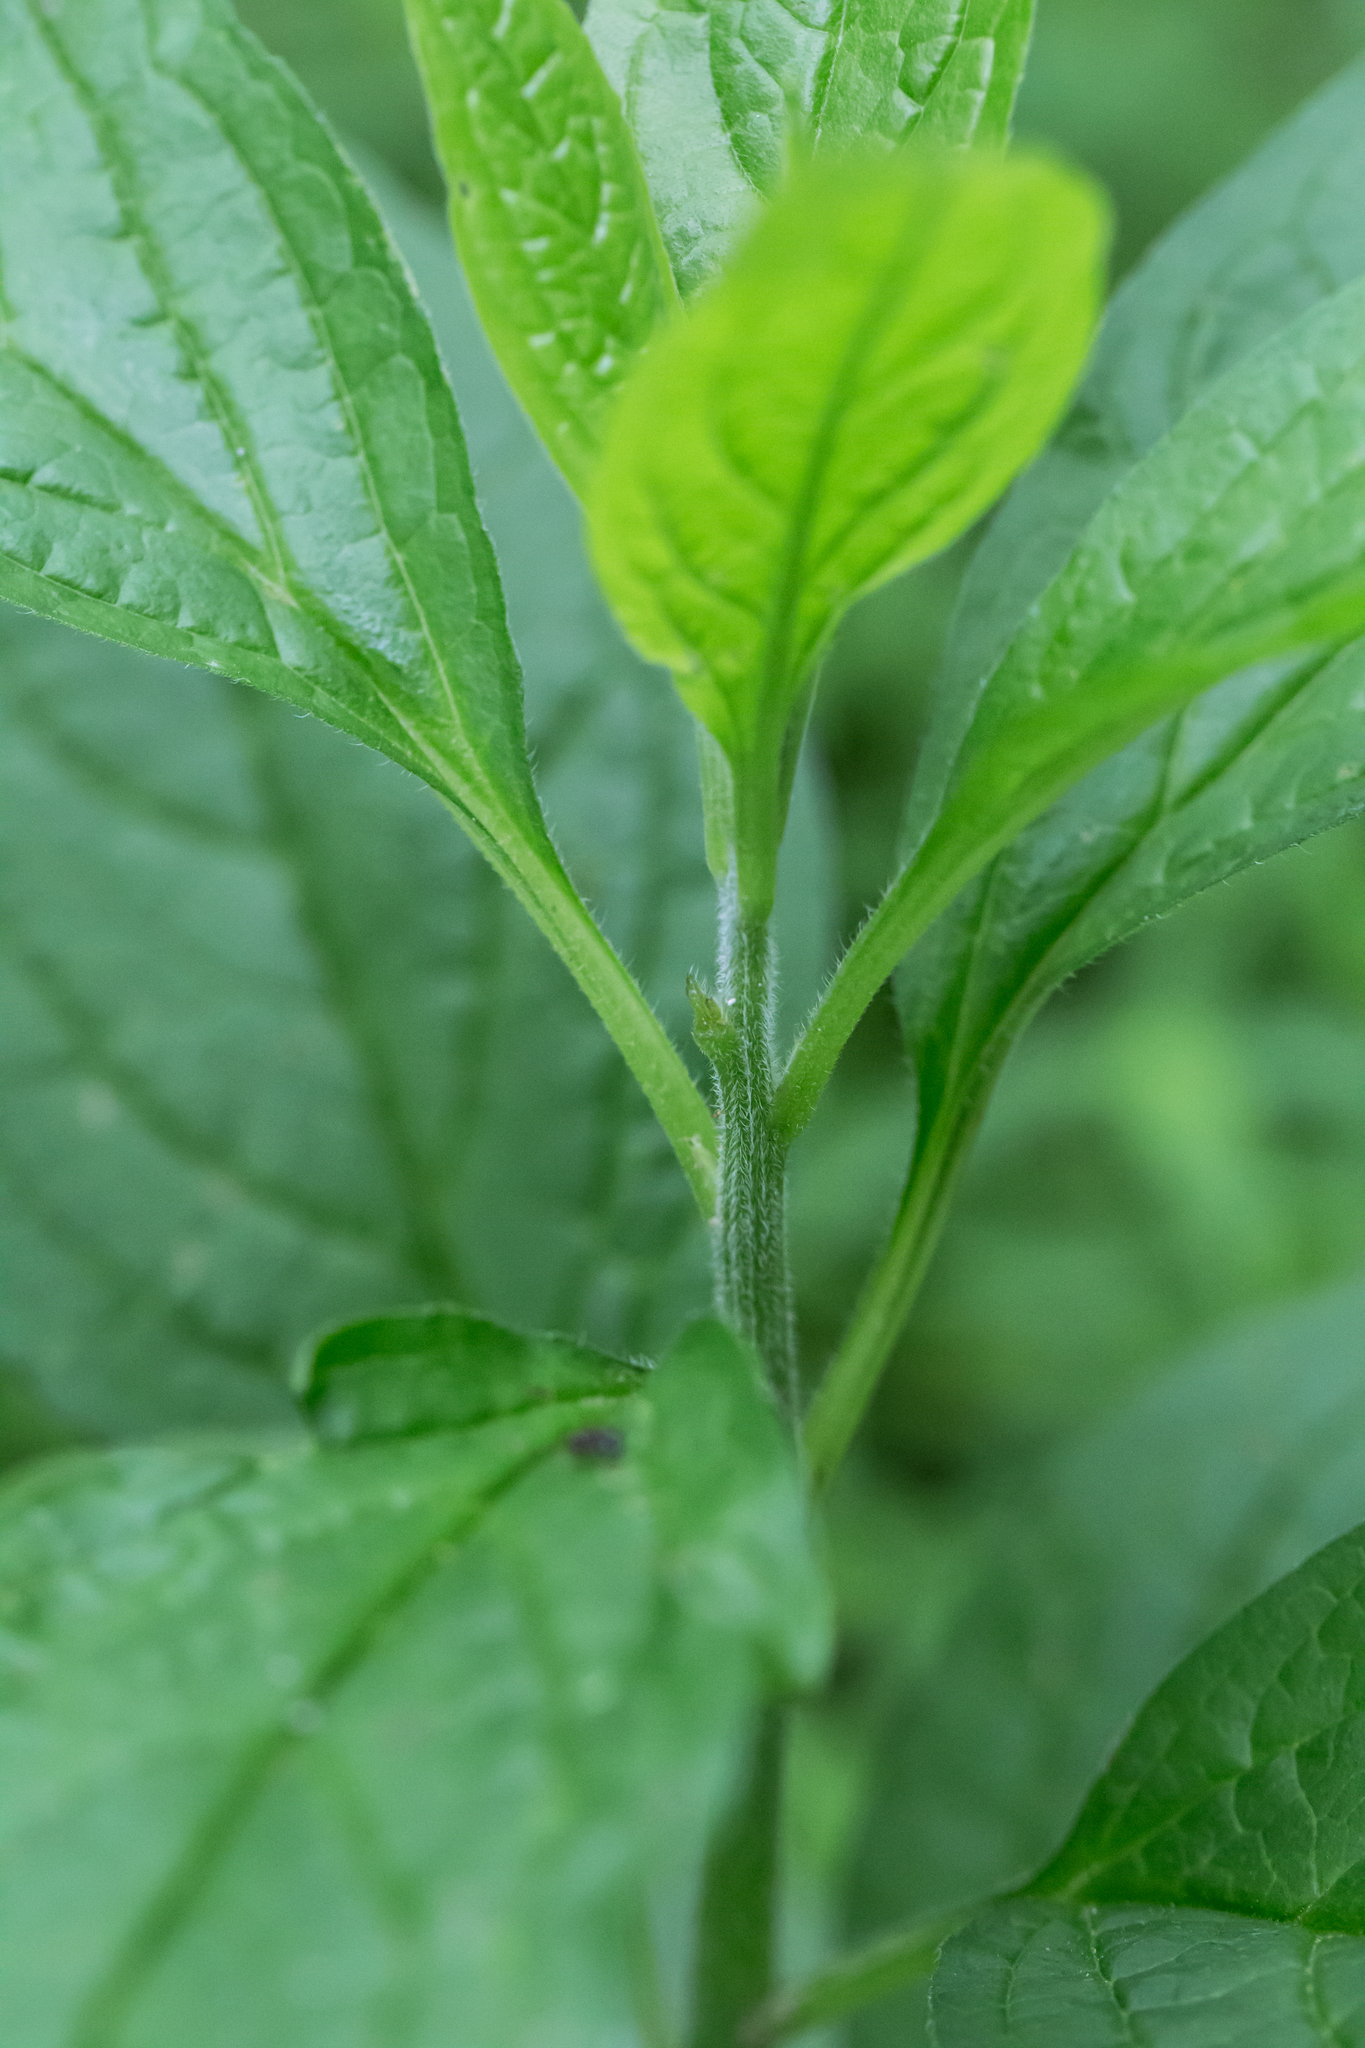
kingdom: Plantae
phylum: Tracheophyta
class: Magnoliopsida
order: Boraginales
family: Boraginaceae
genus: Hackelia
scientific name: Hackelia virginiana
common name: Beggar's-lice
